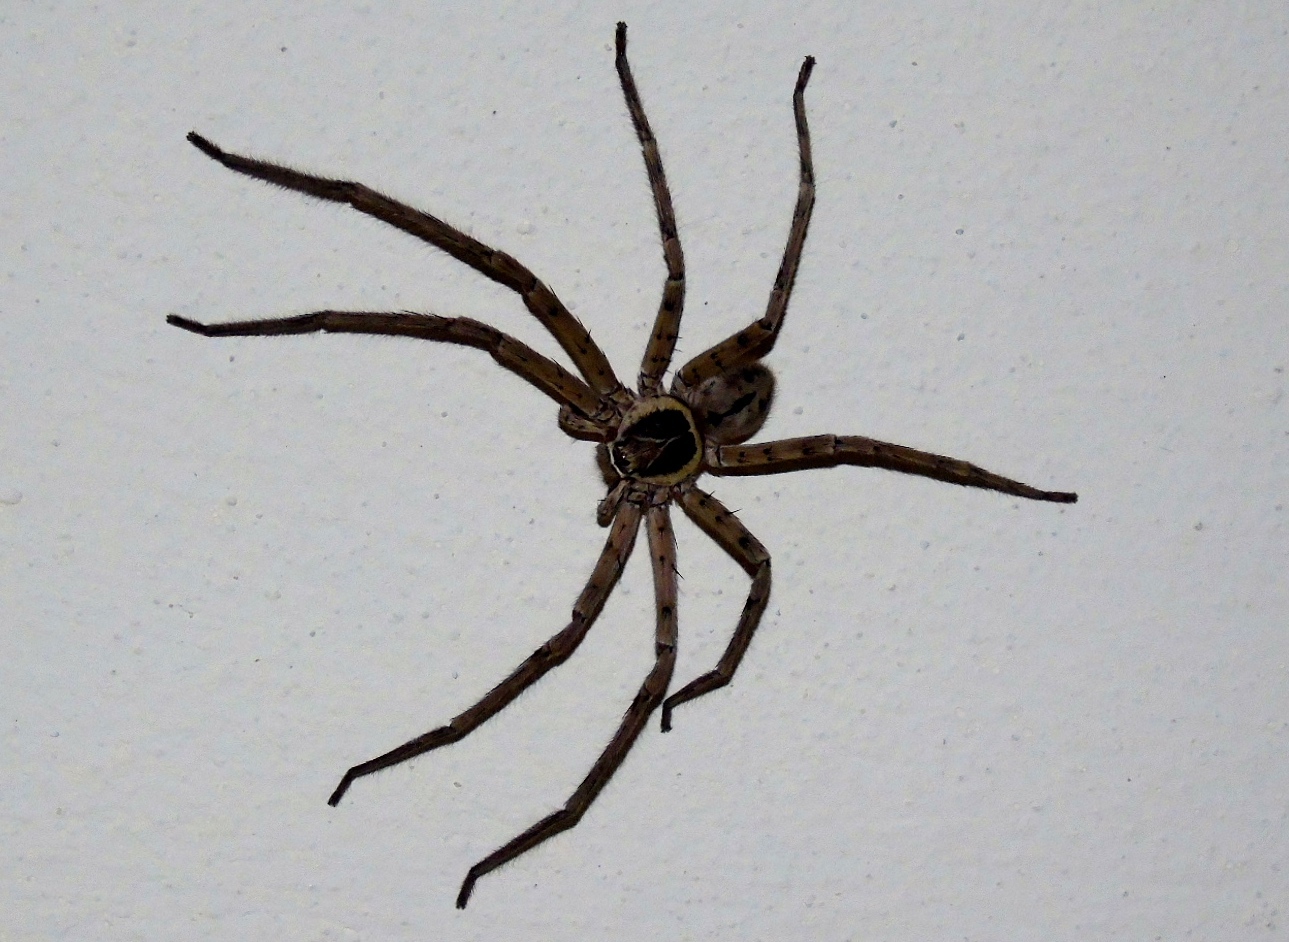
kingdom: Animalia
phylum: Arthropoda
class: Arachnida
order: Araneae
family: Sparassidae
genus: Heteropoda
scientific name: Heteropoda venatoria
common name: Huntsman spider
